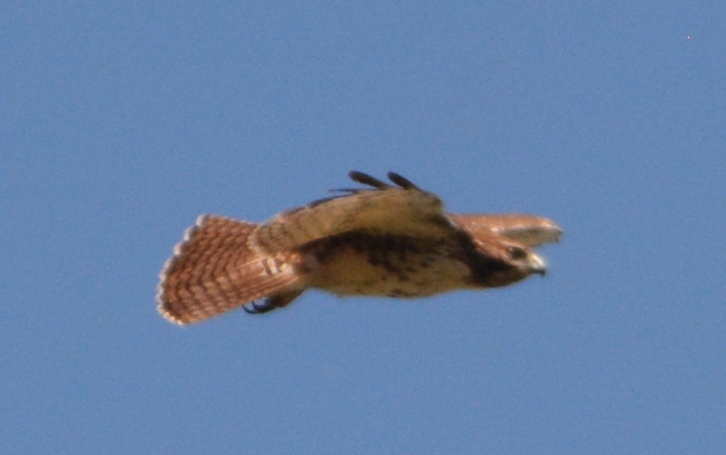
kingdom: Animalia
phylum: Chordata
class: Aves
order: Accipitriformes
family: Accipitridae
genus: Buteo
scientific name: Buteo jamaicensis
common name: Red-tailed hawk
